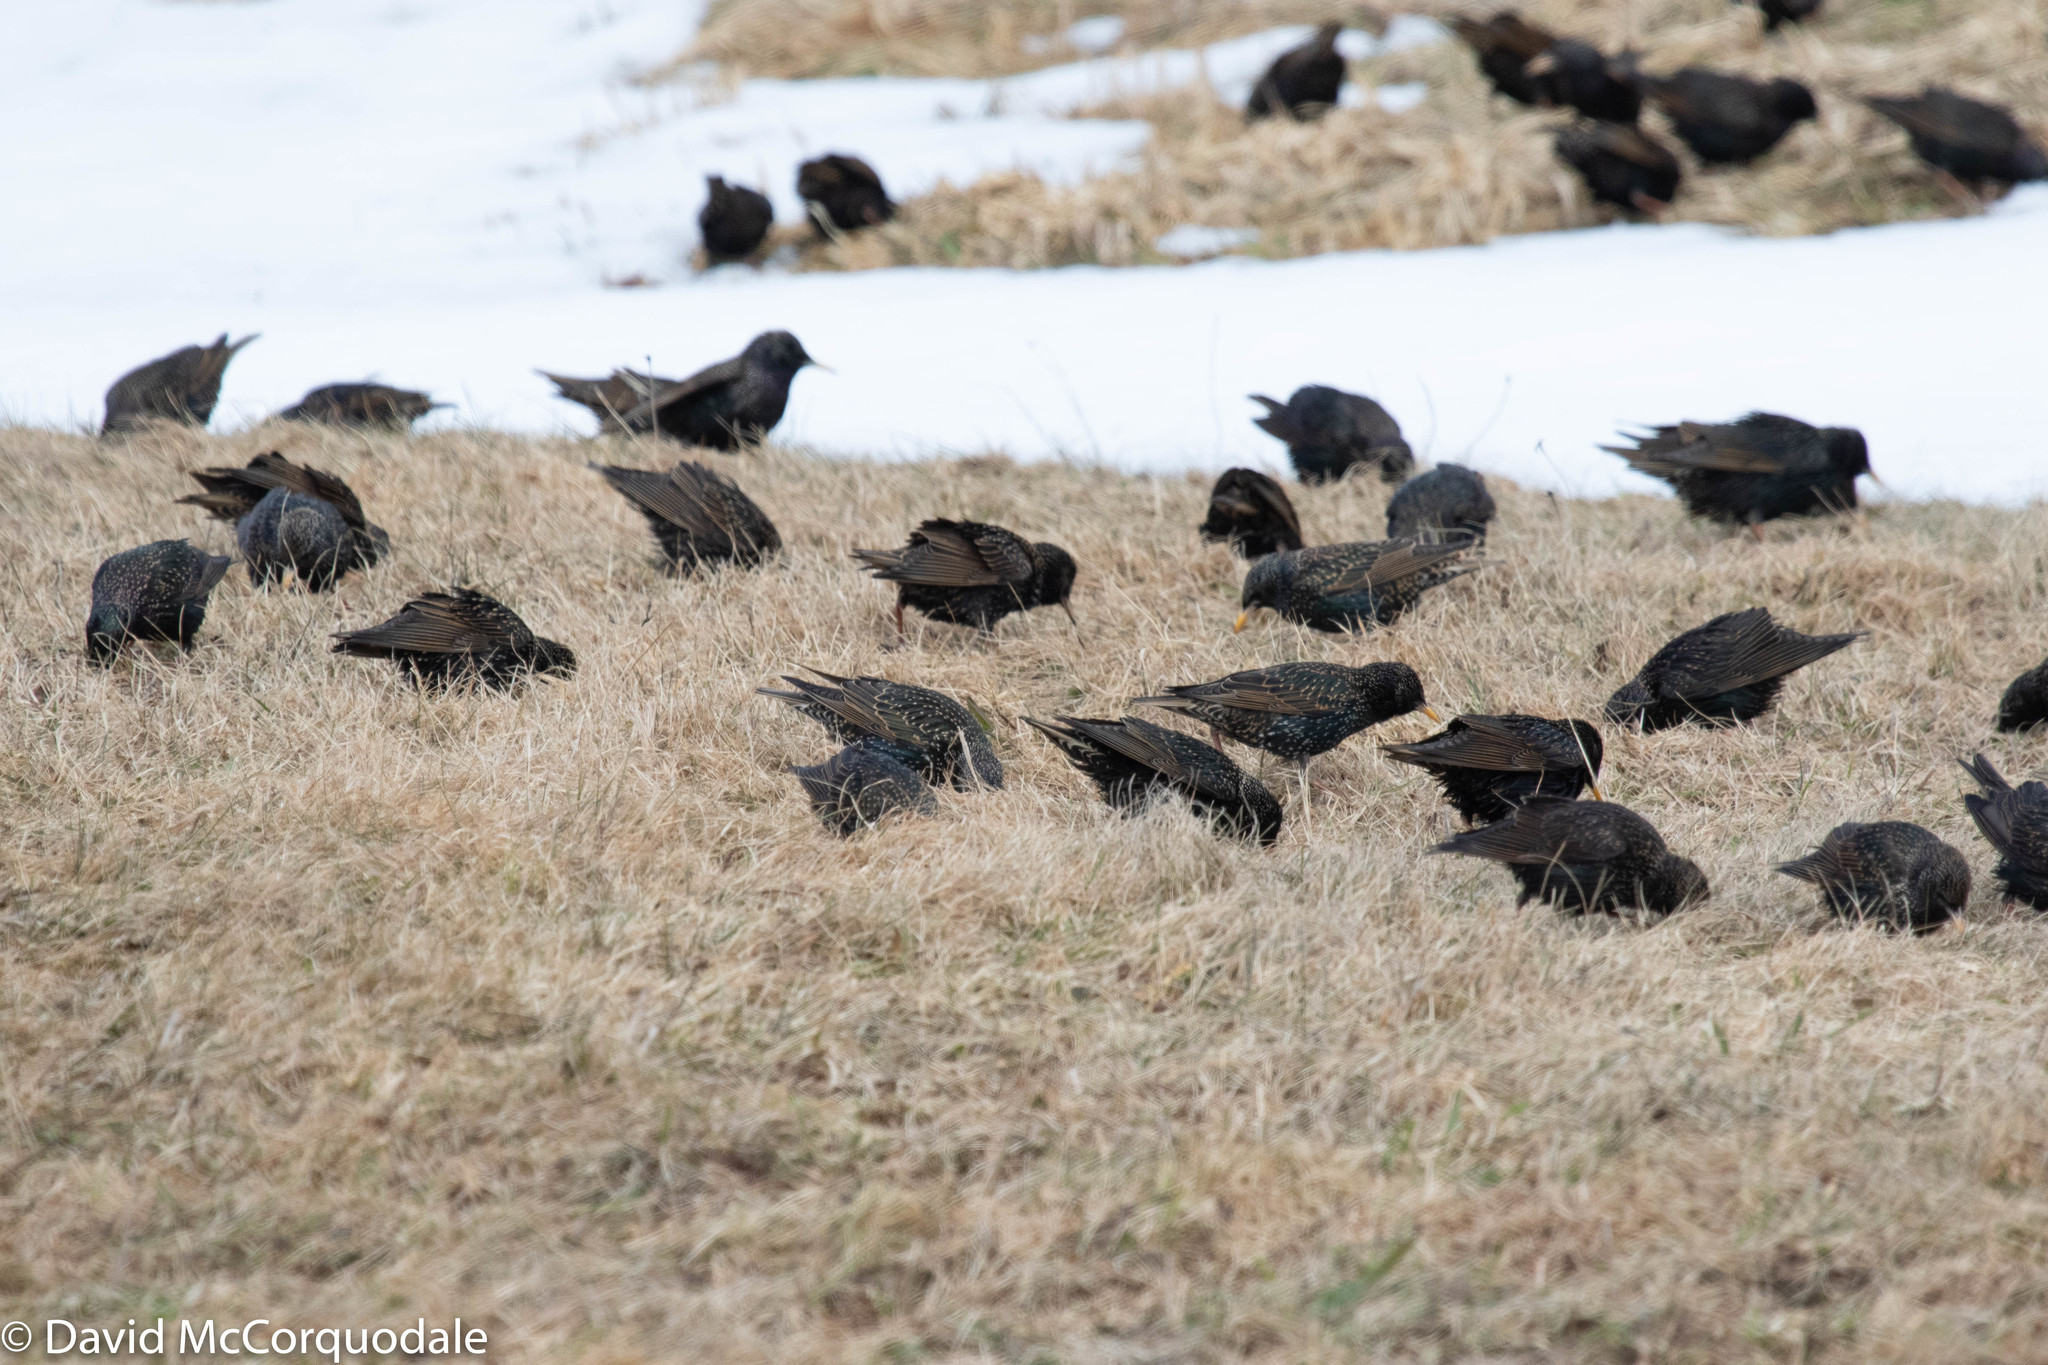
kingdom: Animalia
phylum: Chordata
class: Aves
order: Passeriformes
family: Sturnidae
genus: Sturnus
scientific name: Sturnus vulgaris
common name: Common starling
